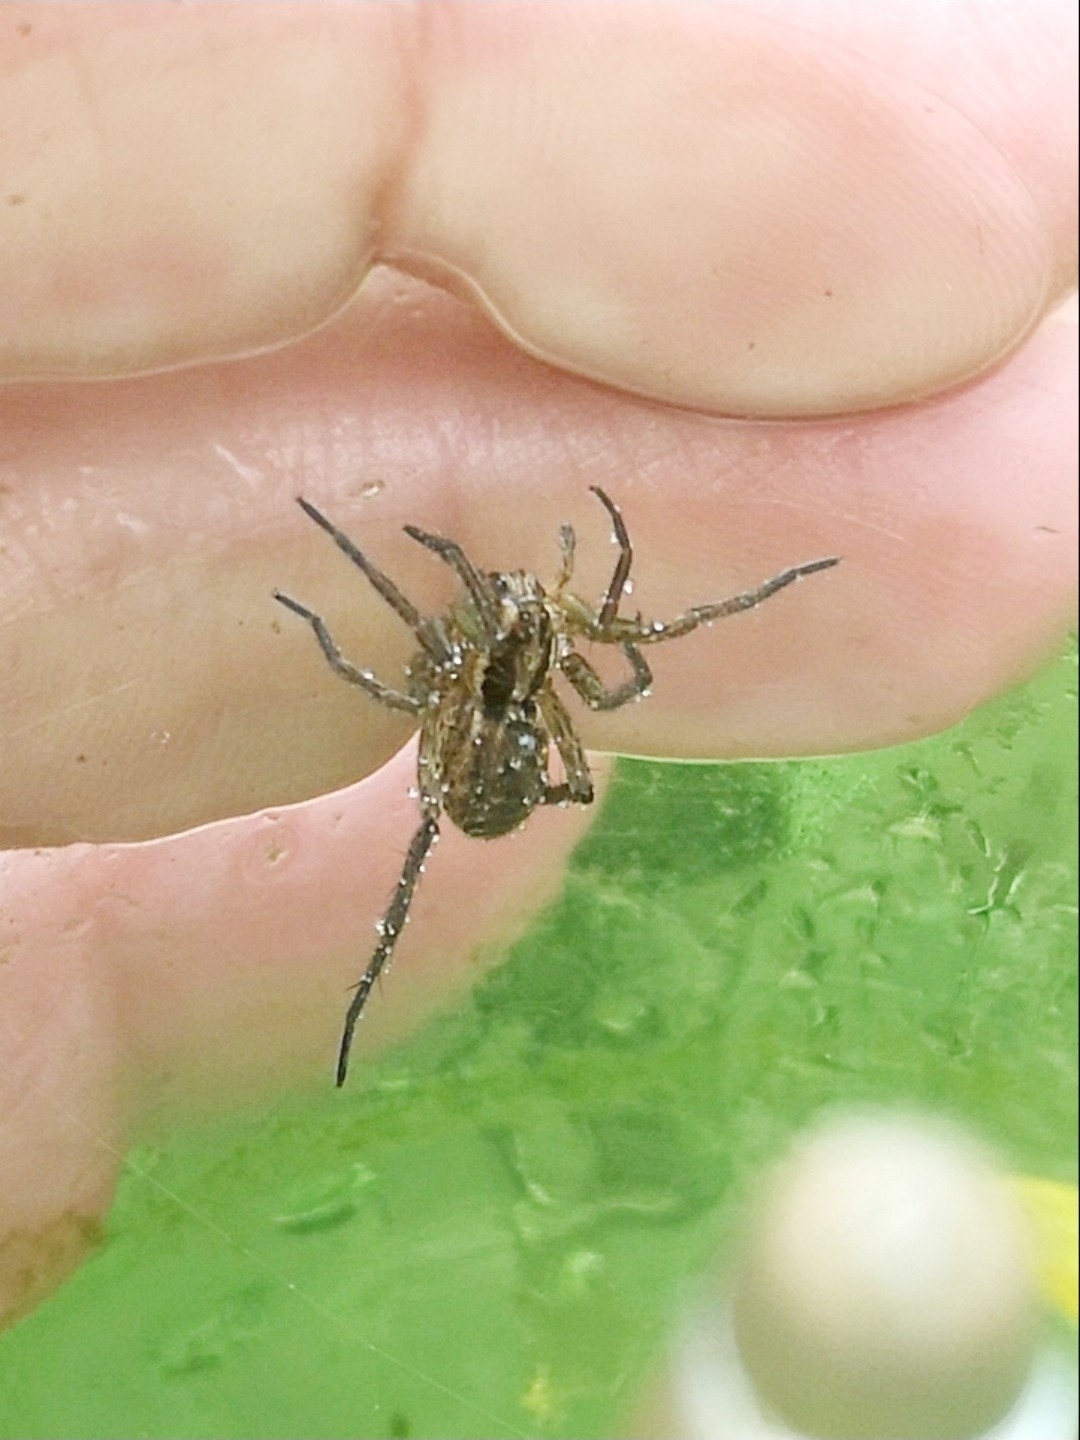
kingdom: Animalia
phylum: Arthropoda
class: Arachnida
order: Araneae
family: Lycosidae
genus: Hogna
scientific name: Hogna radiata
